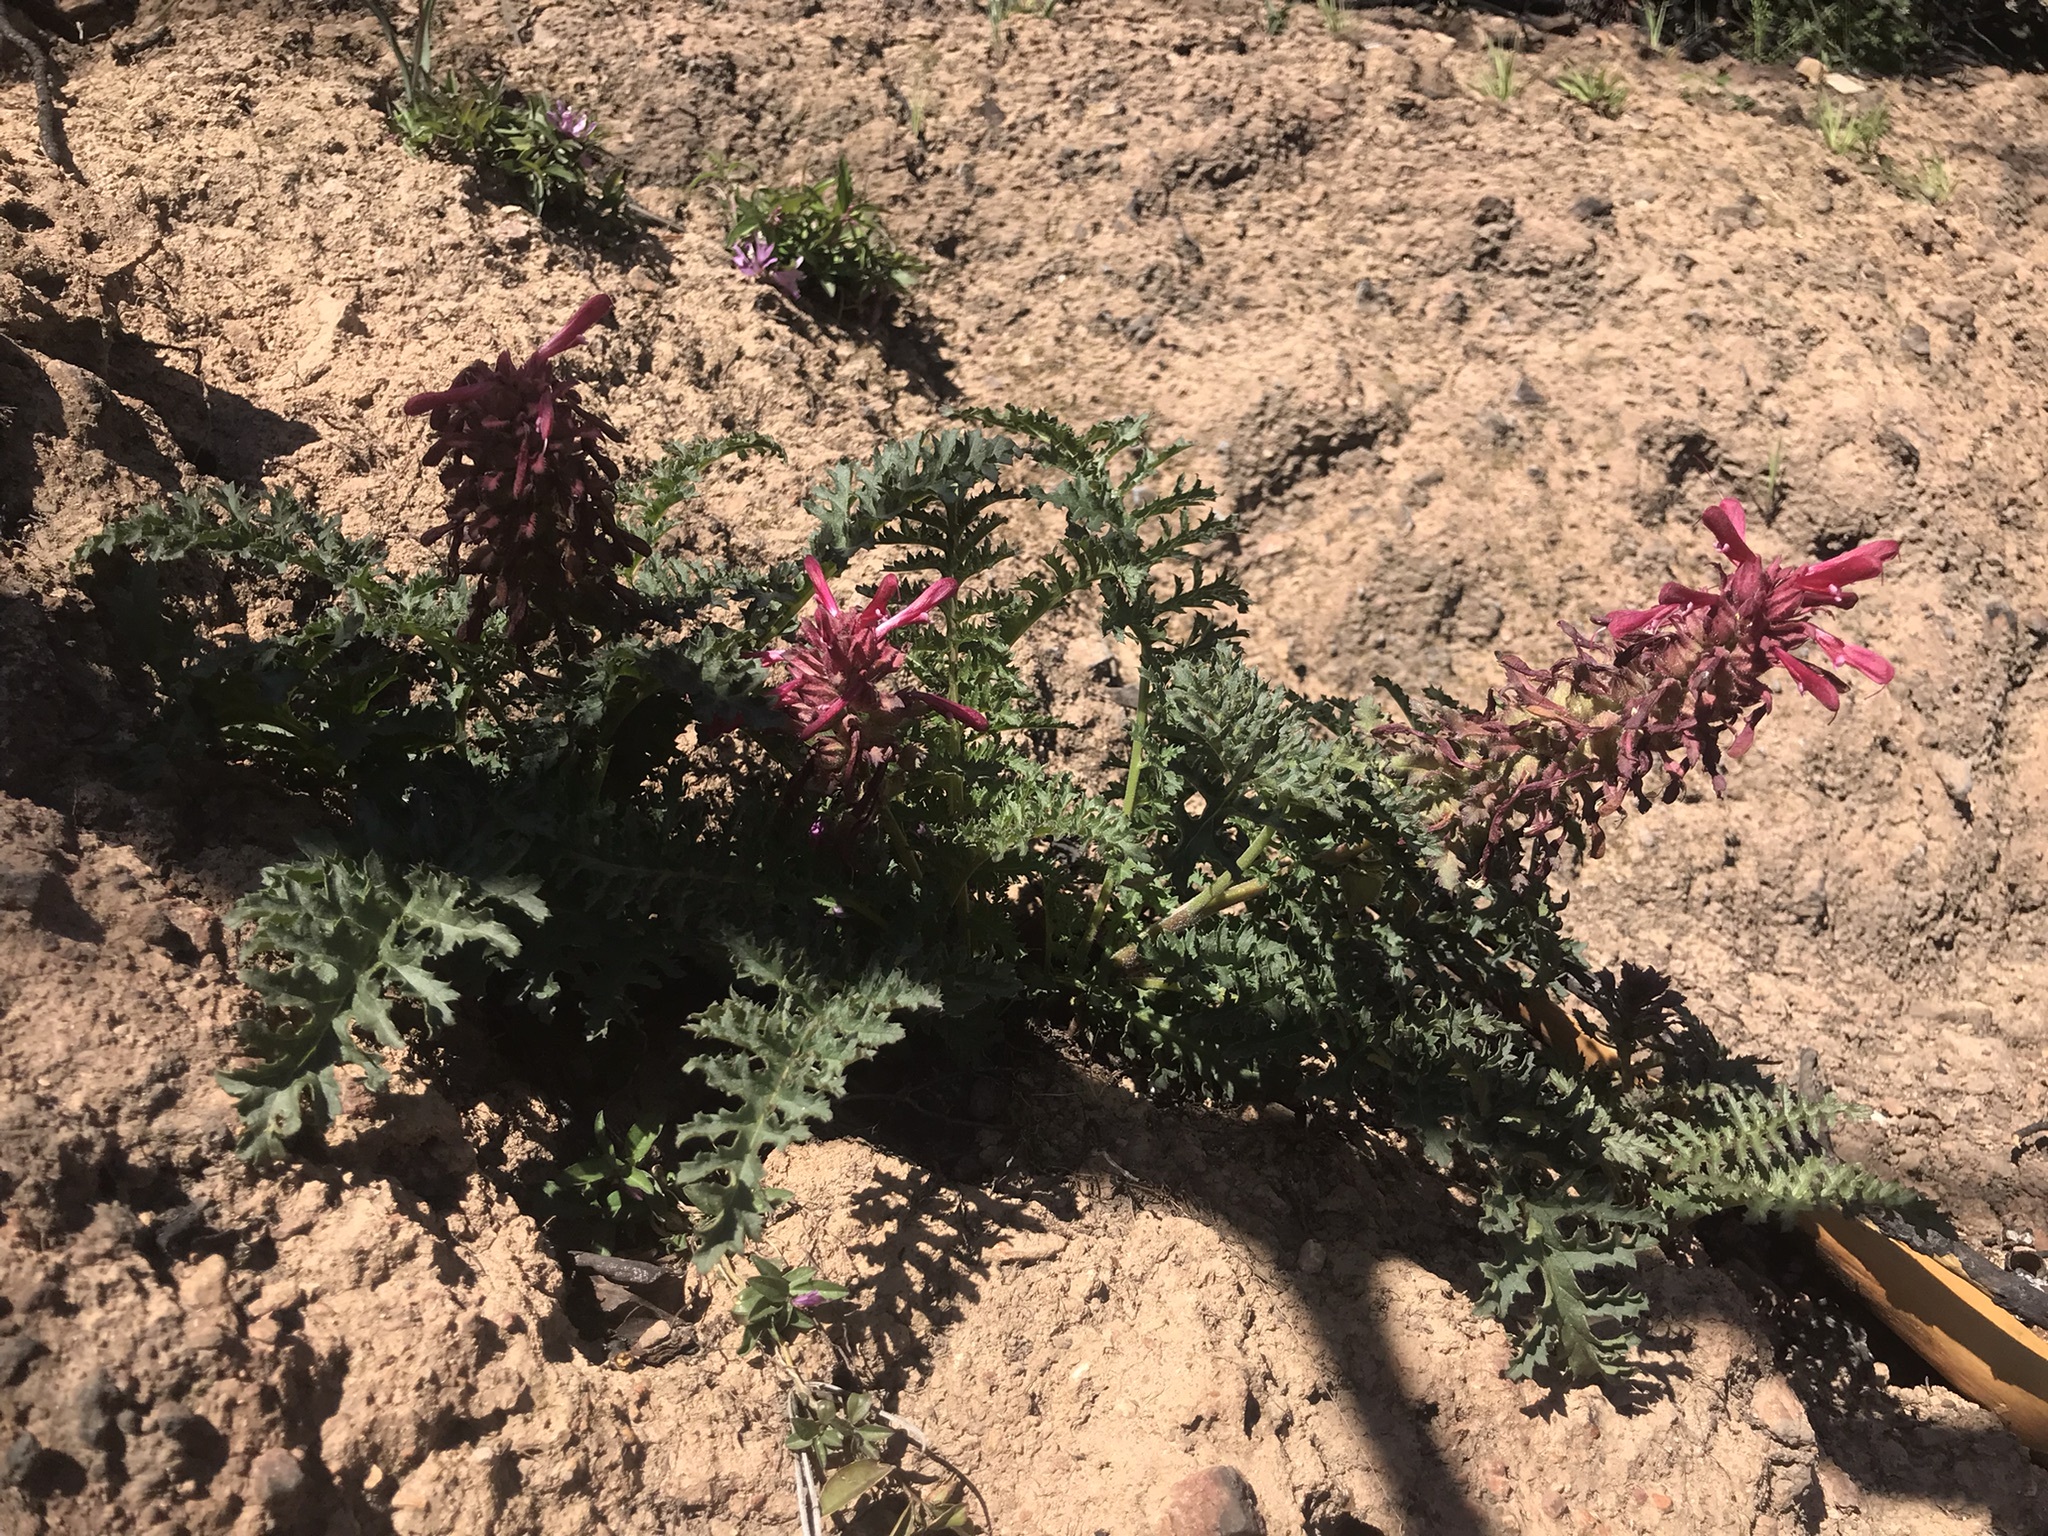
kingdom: Plantae
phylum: Tracheophyta
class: Magnoliopsida
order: Lamiales
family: Orobanchaceae
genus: Pedicularis
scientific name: Pedicularis densiflora
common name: Indian warrior
